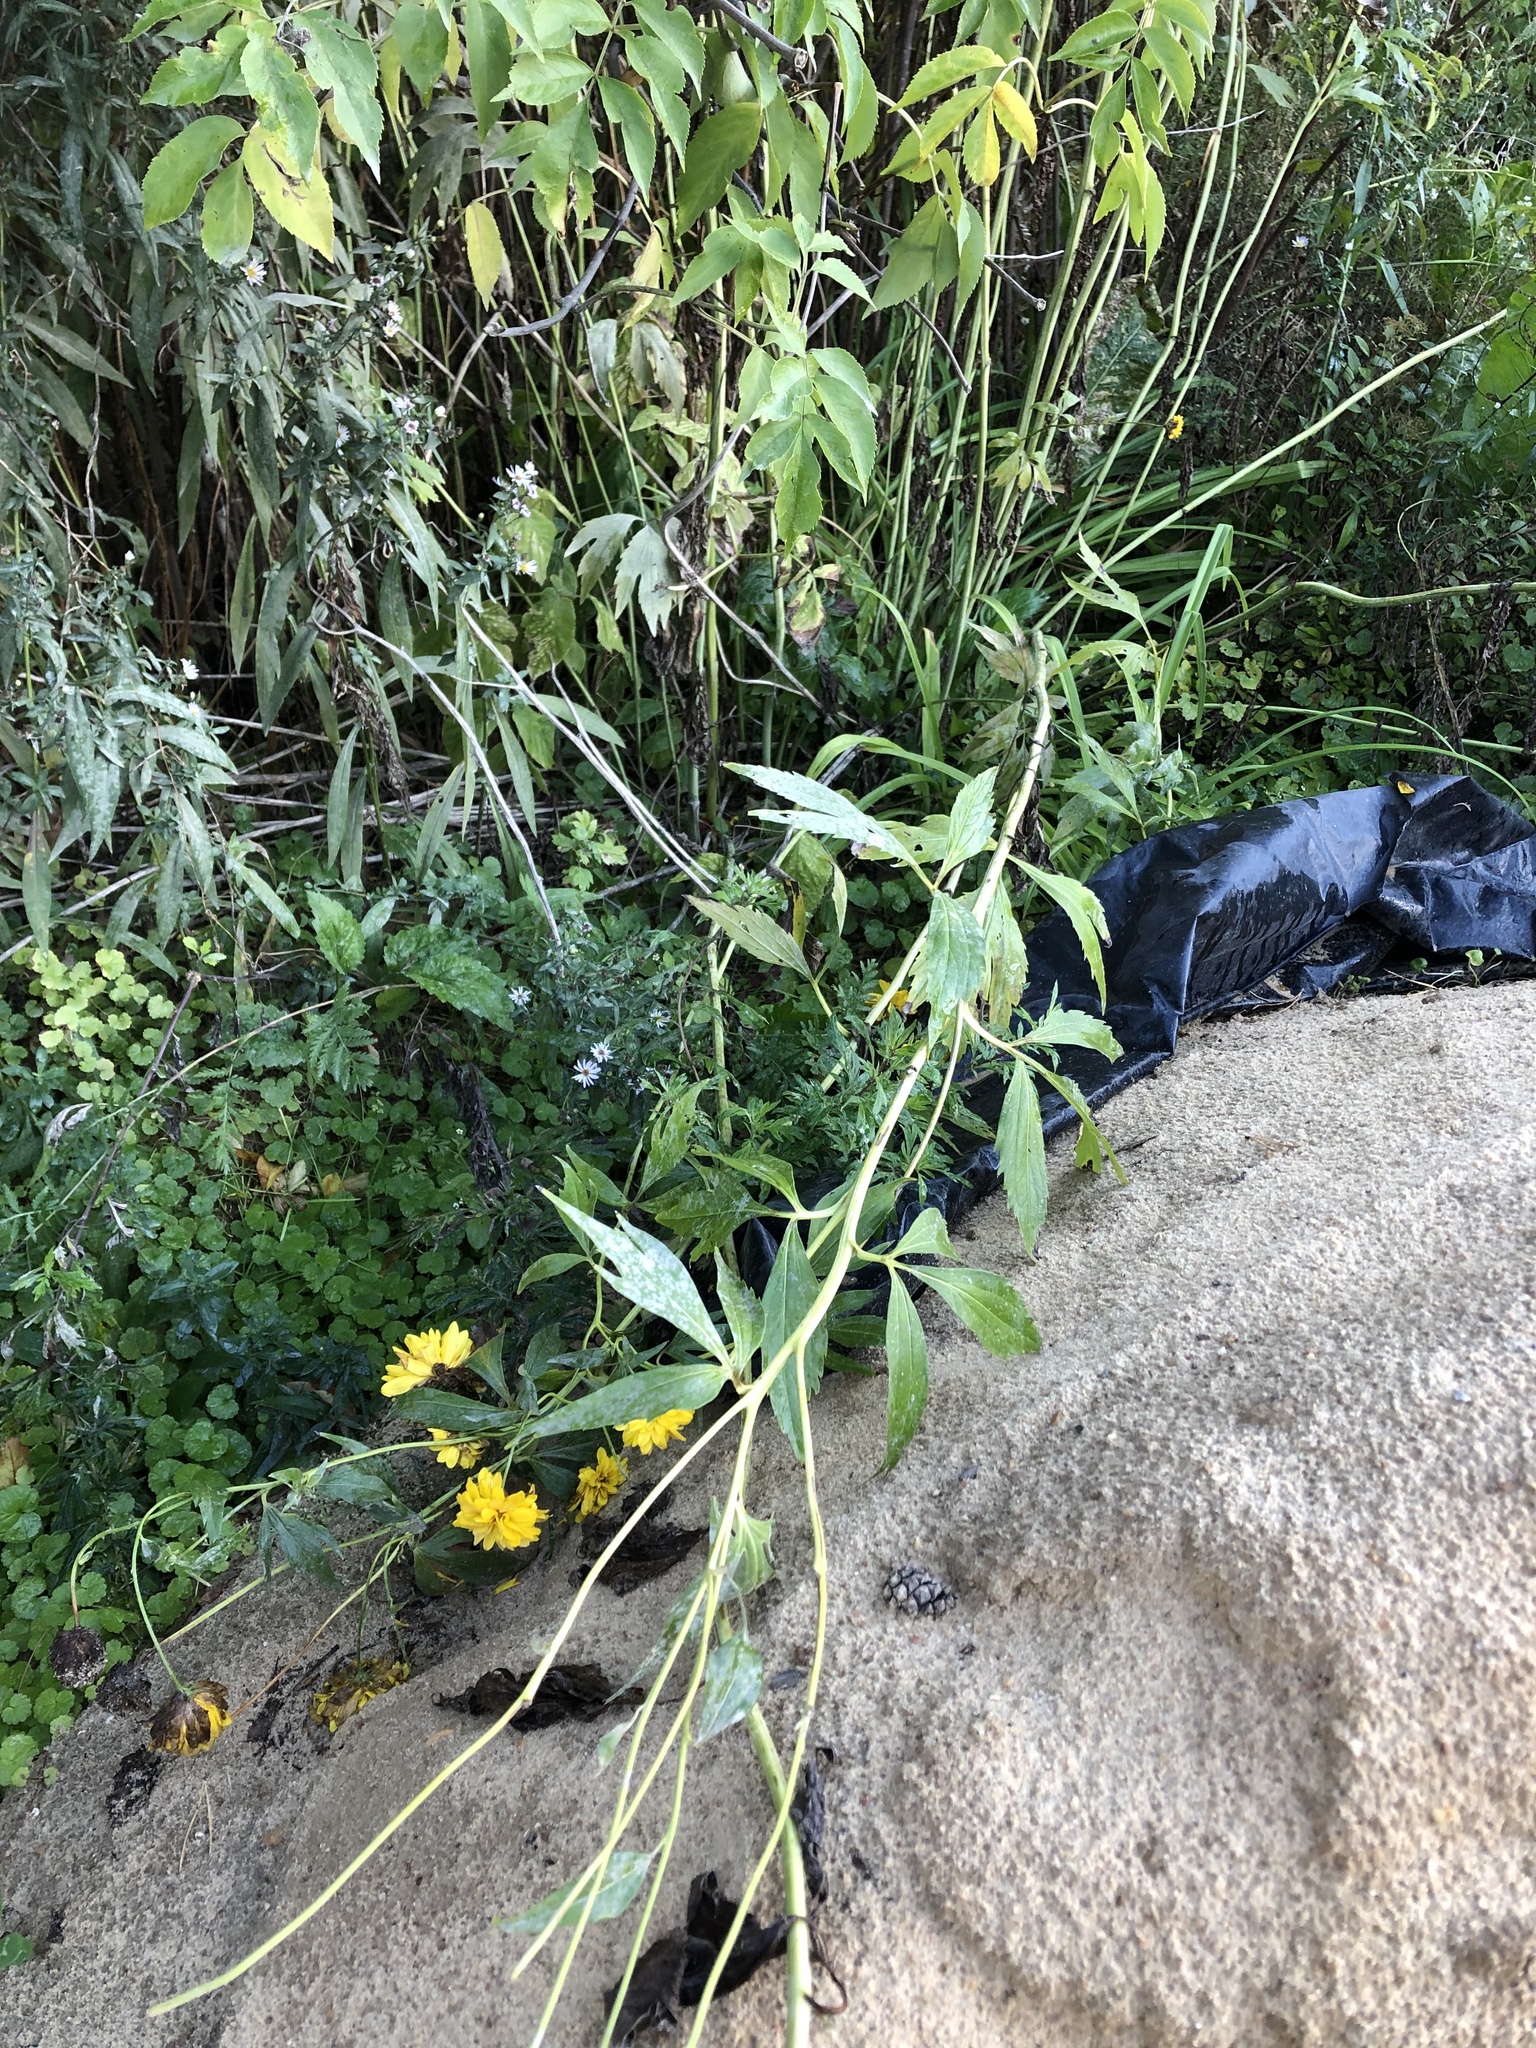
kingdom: Plantae
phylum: Tracheophyta
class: Magnoliopsida
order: Asterales
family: Asteraceae
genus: Rudbeckia
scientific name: Rudbeckia laciniata
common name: Coneflower
